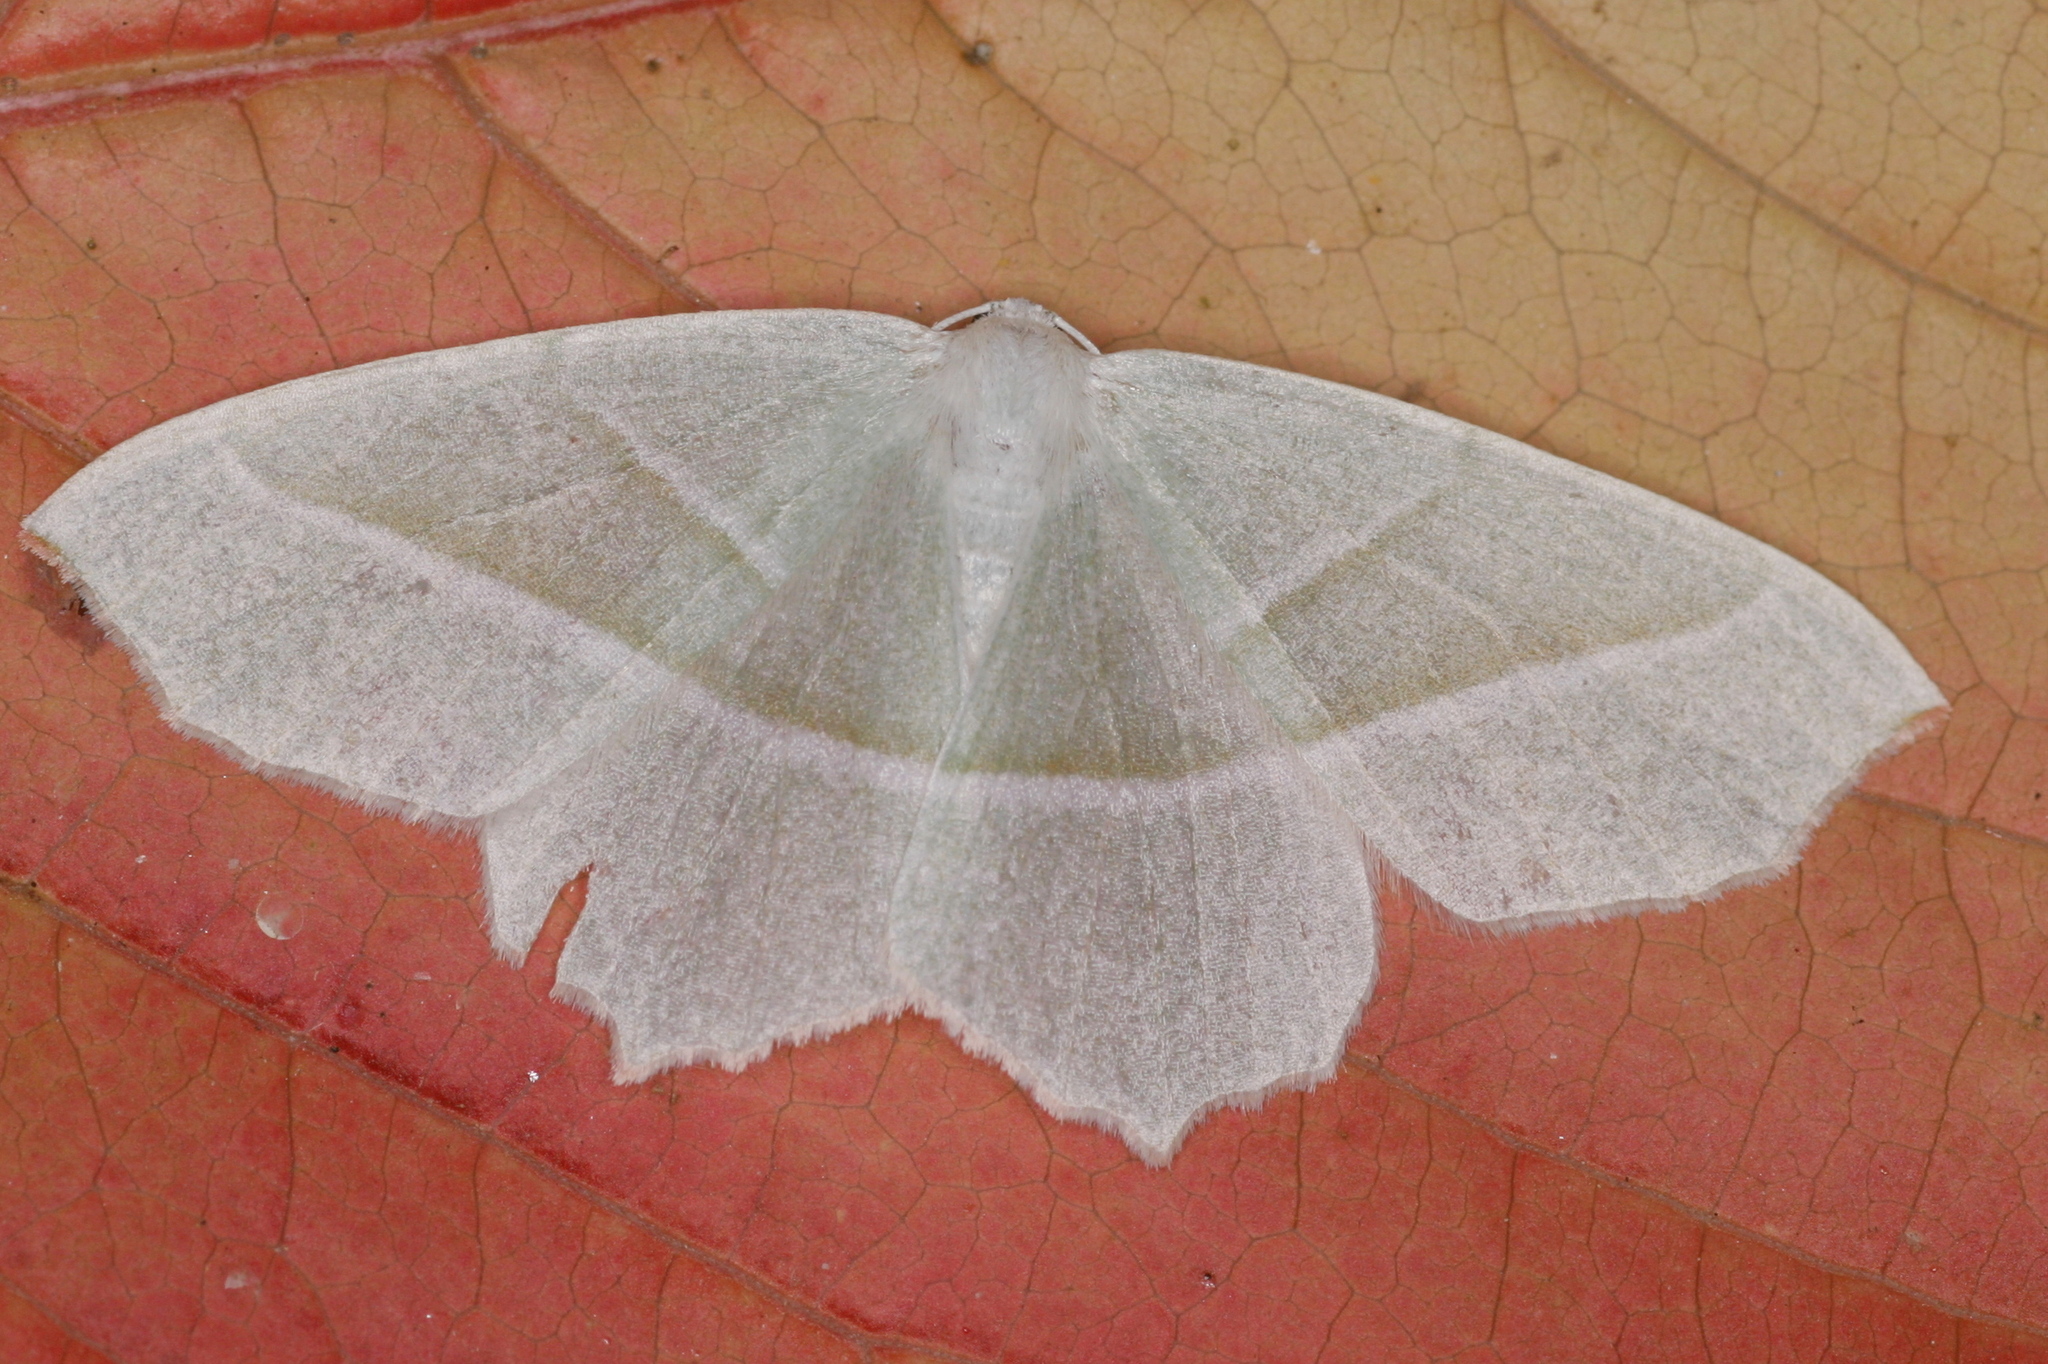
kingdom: Animalia
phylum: Arthropoda
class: Insecta
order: Lepidoptera
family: Geometridae
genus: Campaea
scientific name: Campaea margaritaria
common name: Light emerald
